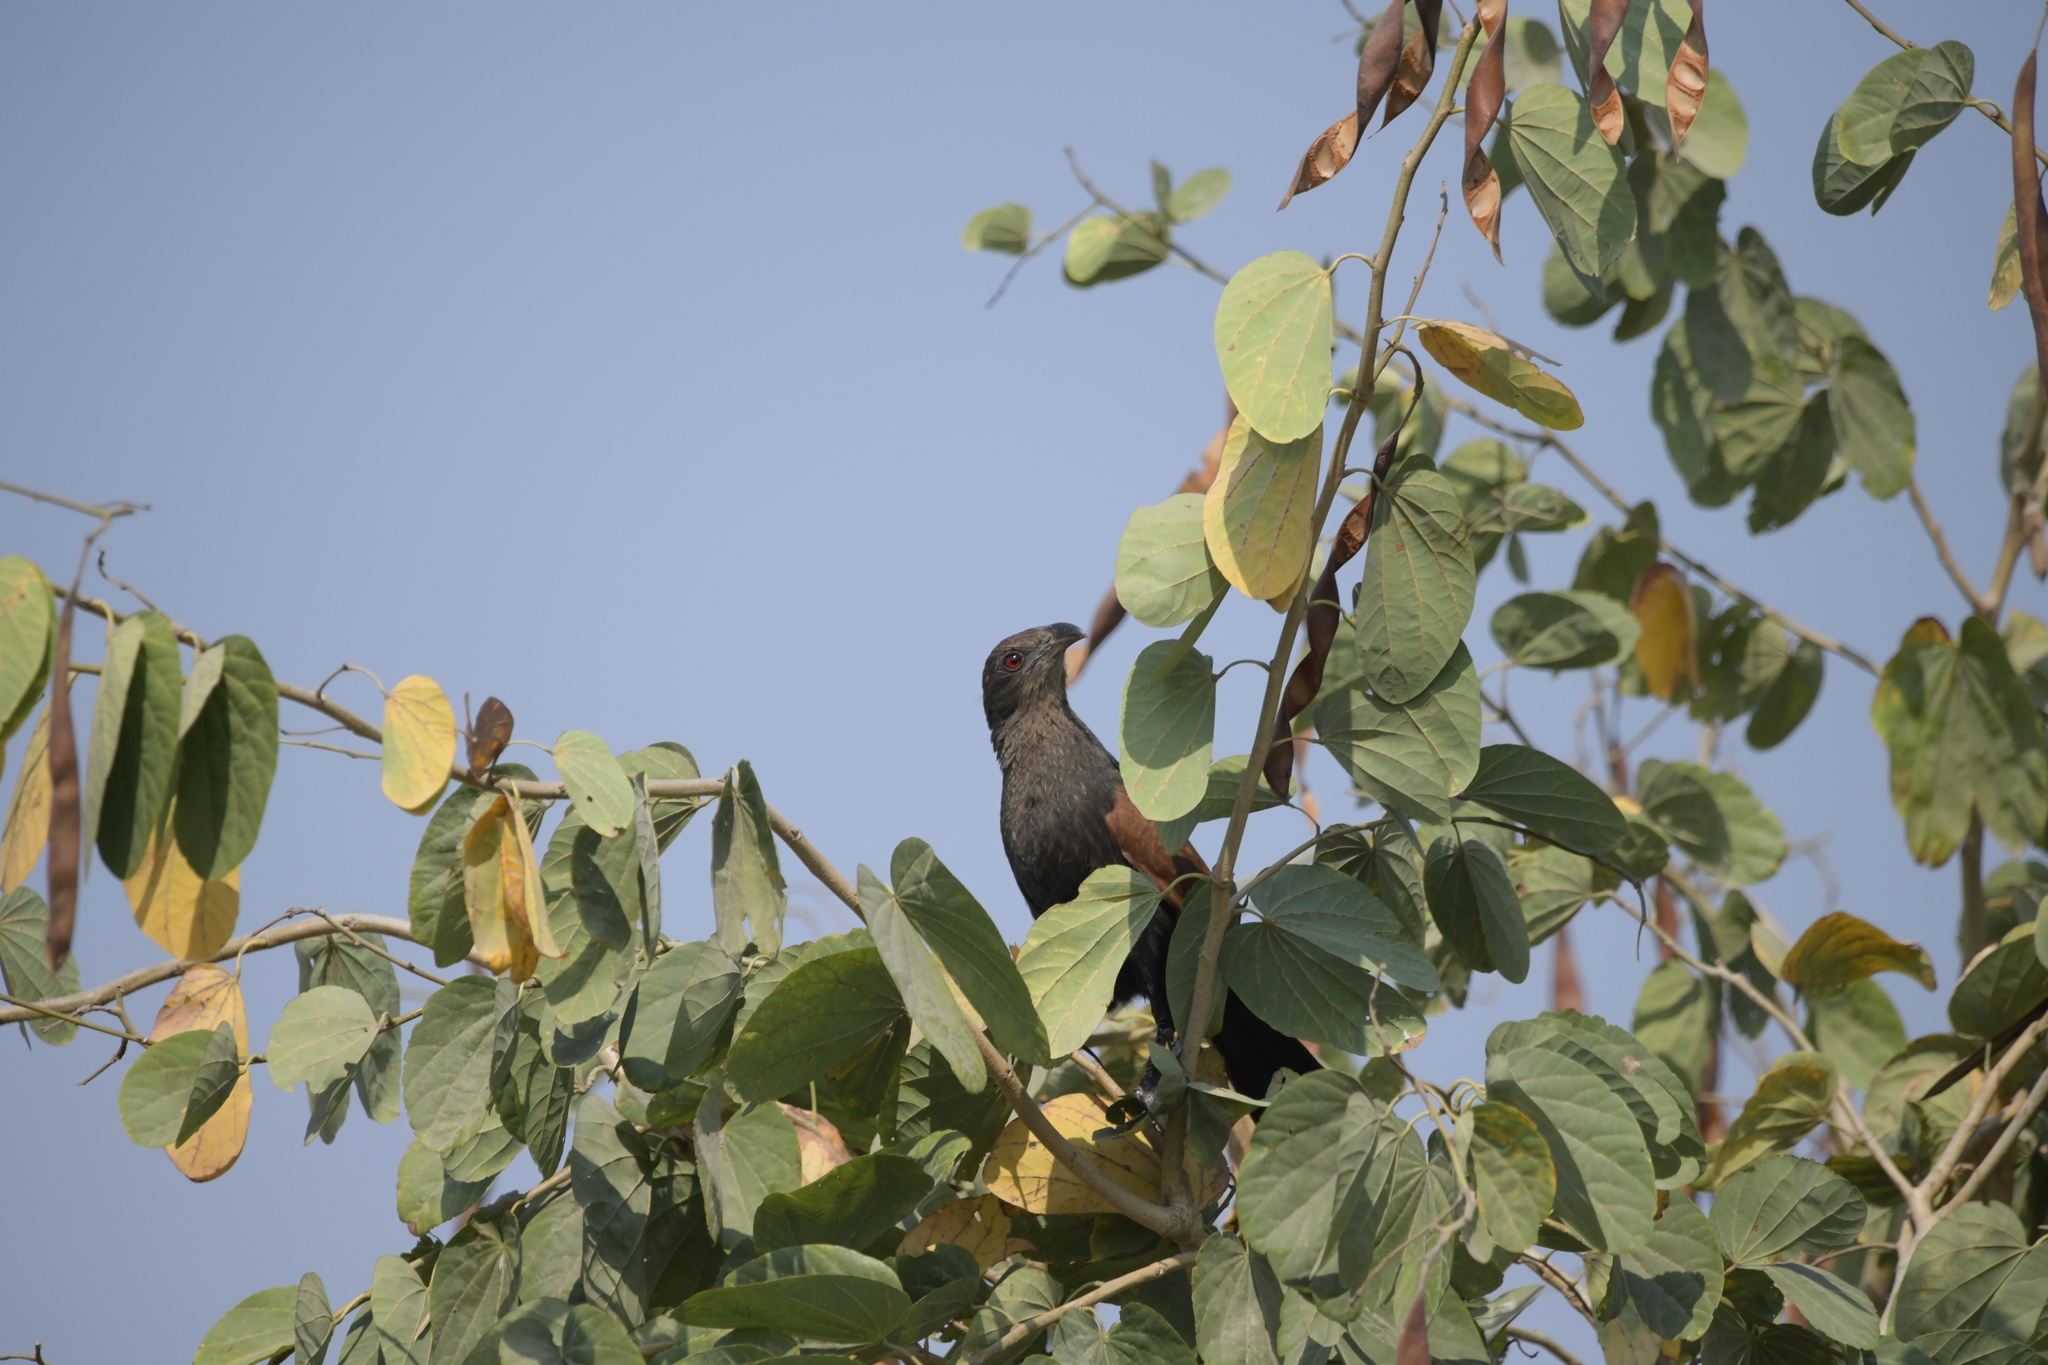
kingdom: Animalia
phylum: Chordata
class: Aves
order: Cuculiformes
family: Cuculidae
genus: Centropus
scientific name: Centropus sinensis
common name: Greater coucal
